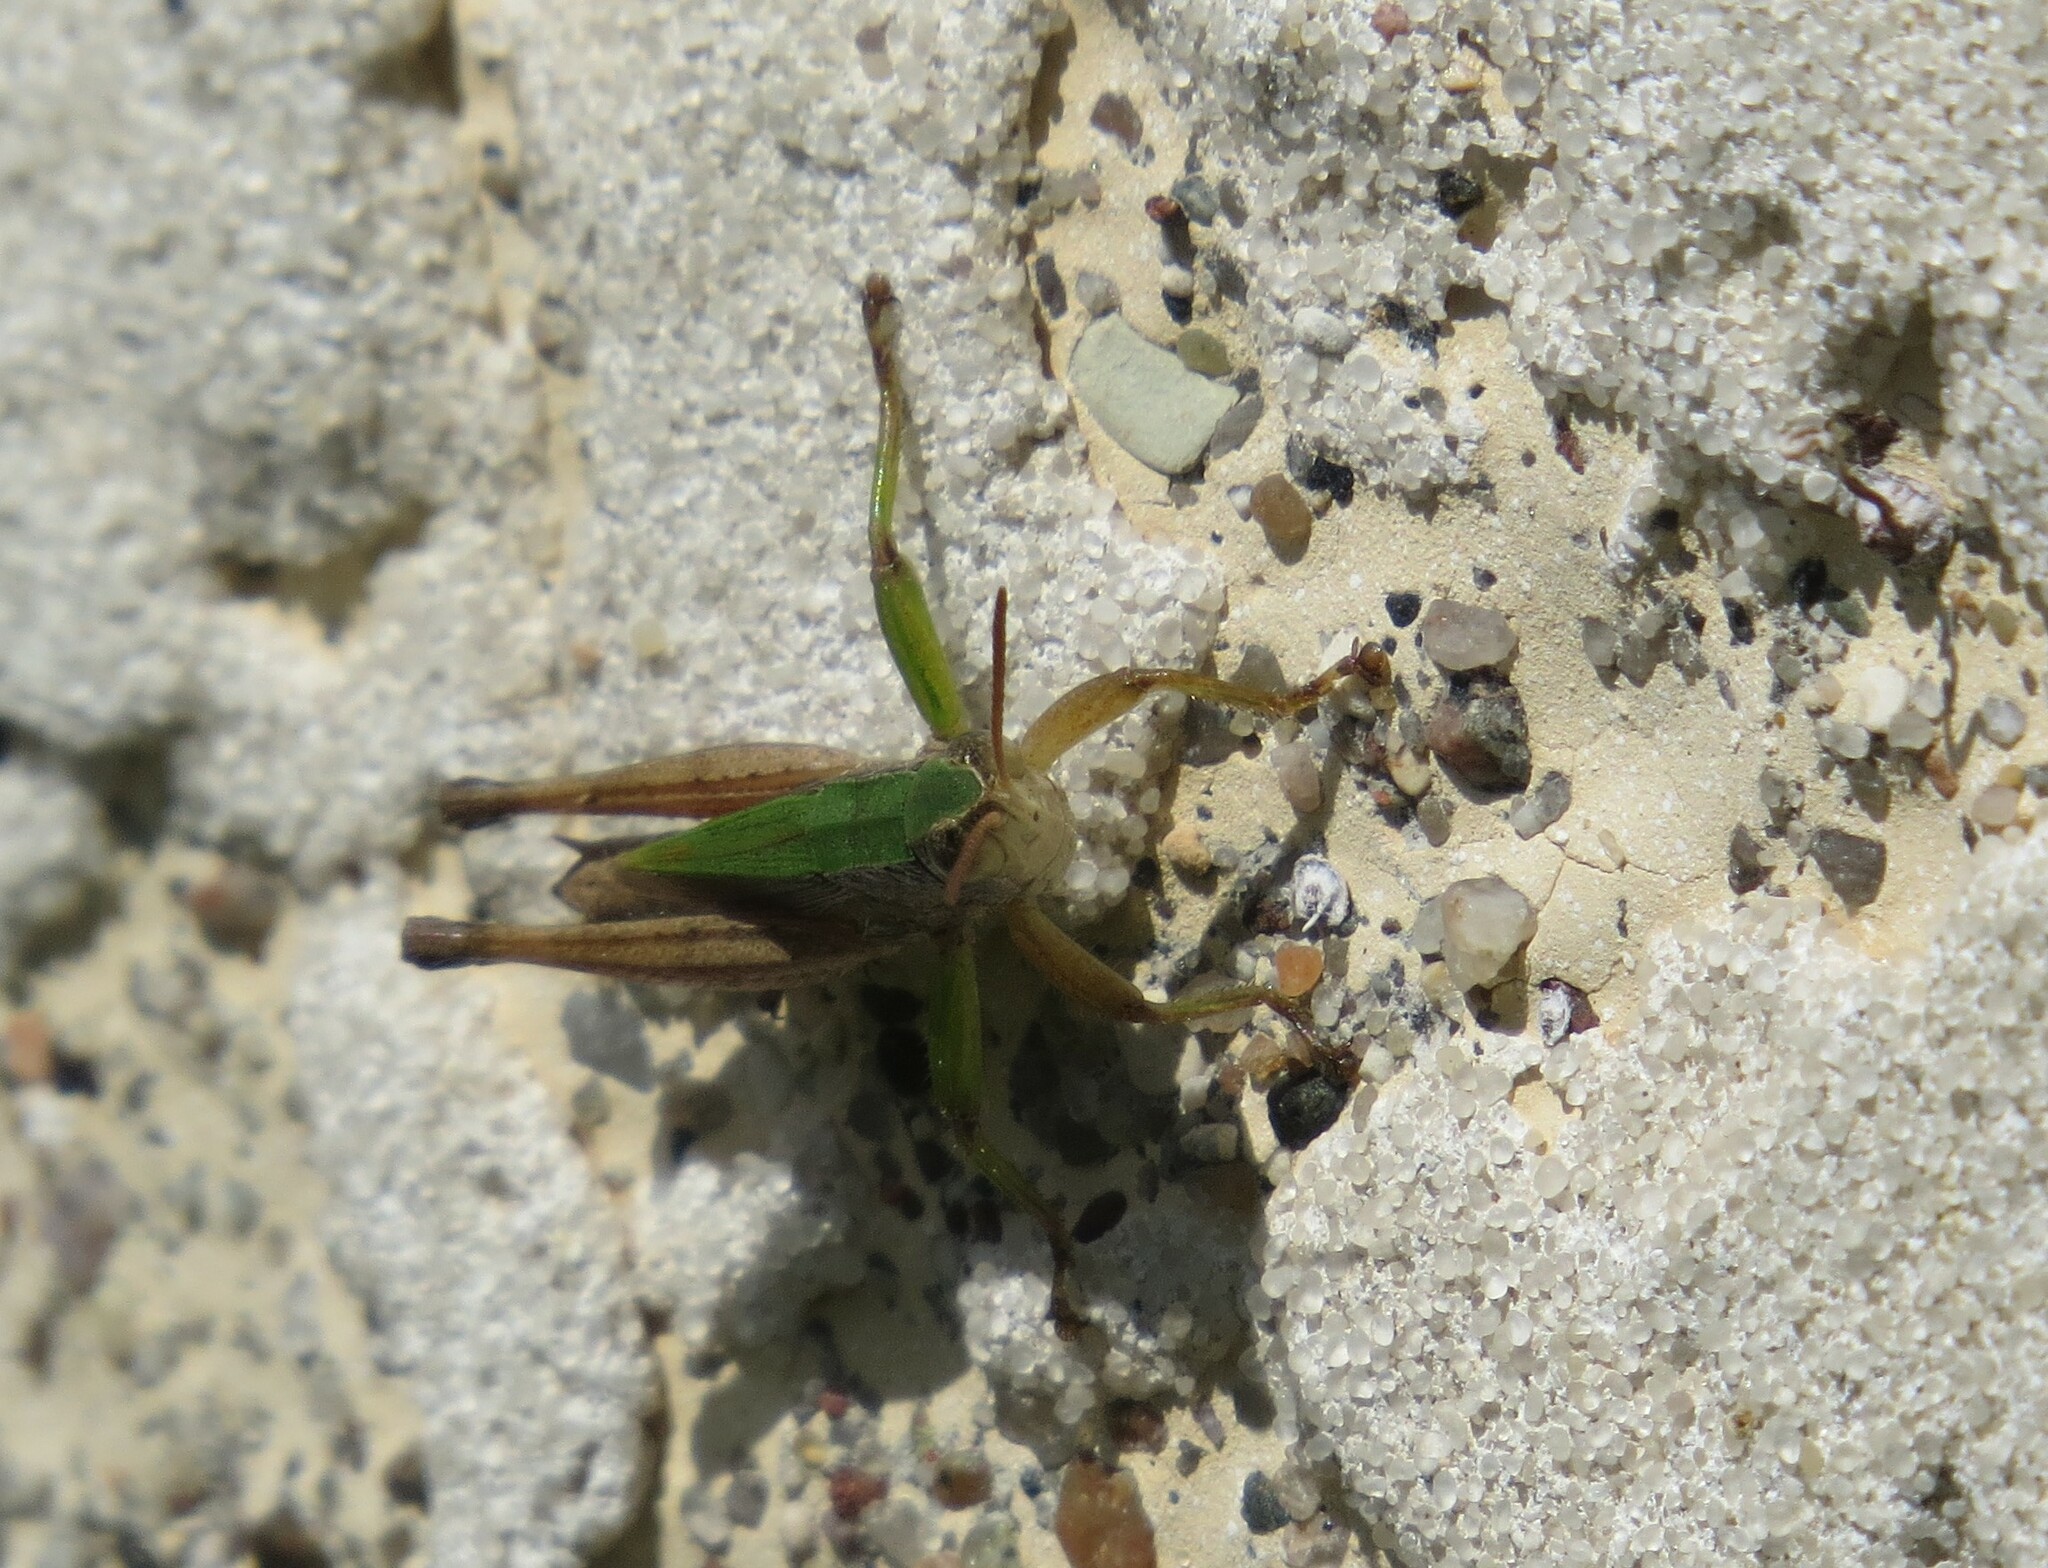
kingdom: Animalia
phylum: Arthropoda
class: Insecta
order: Orthoptera
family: Acrididae
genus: Dichromorpha
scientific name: Dichromorpha viridis
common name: Short-winged green grasshopper
